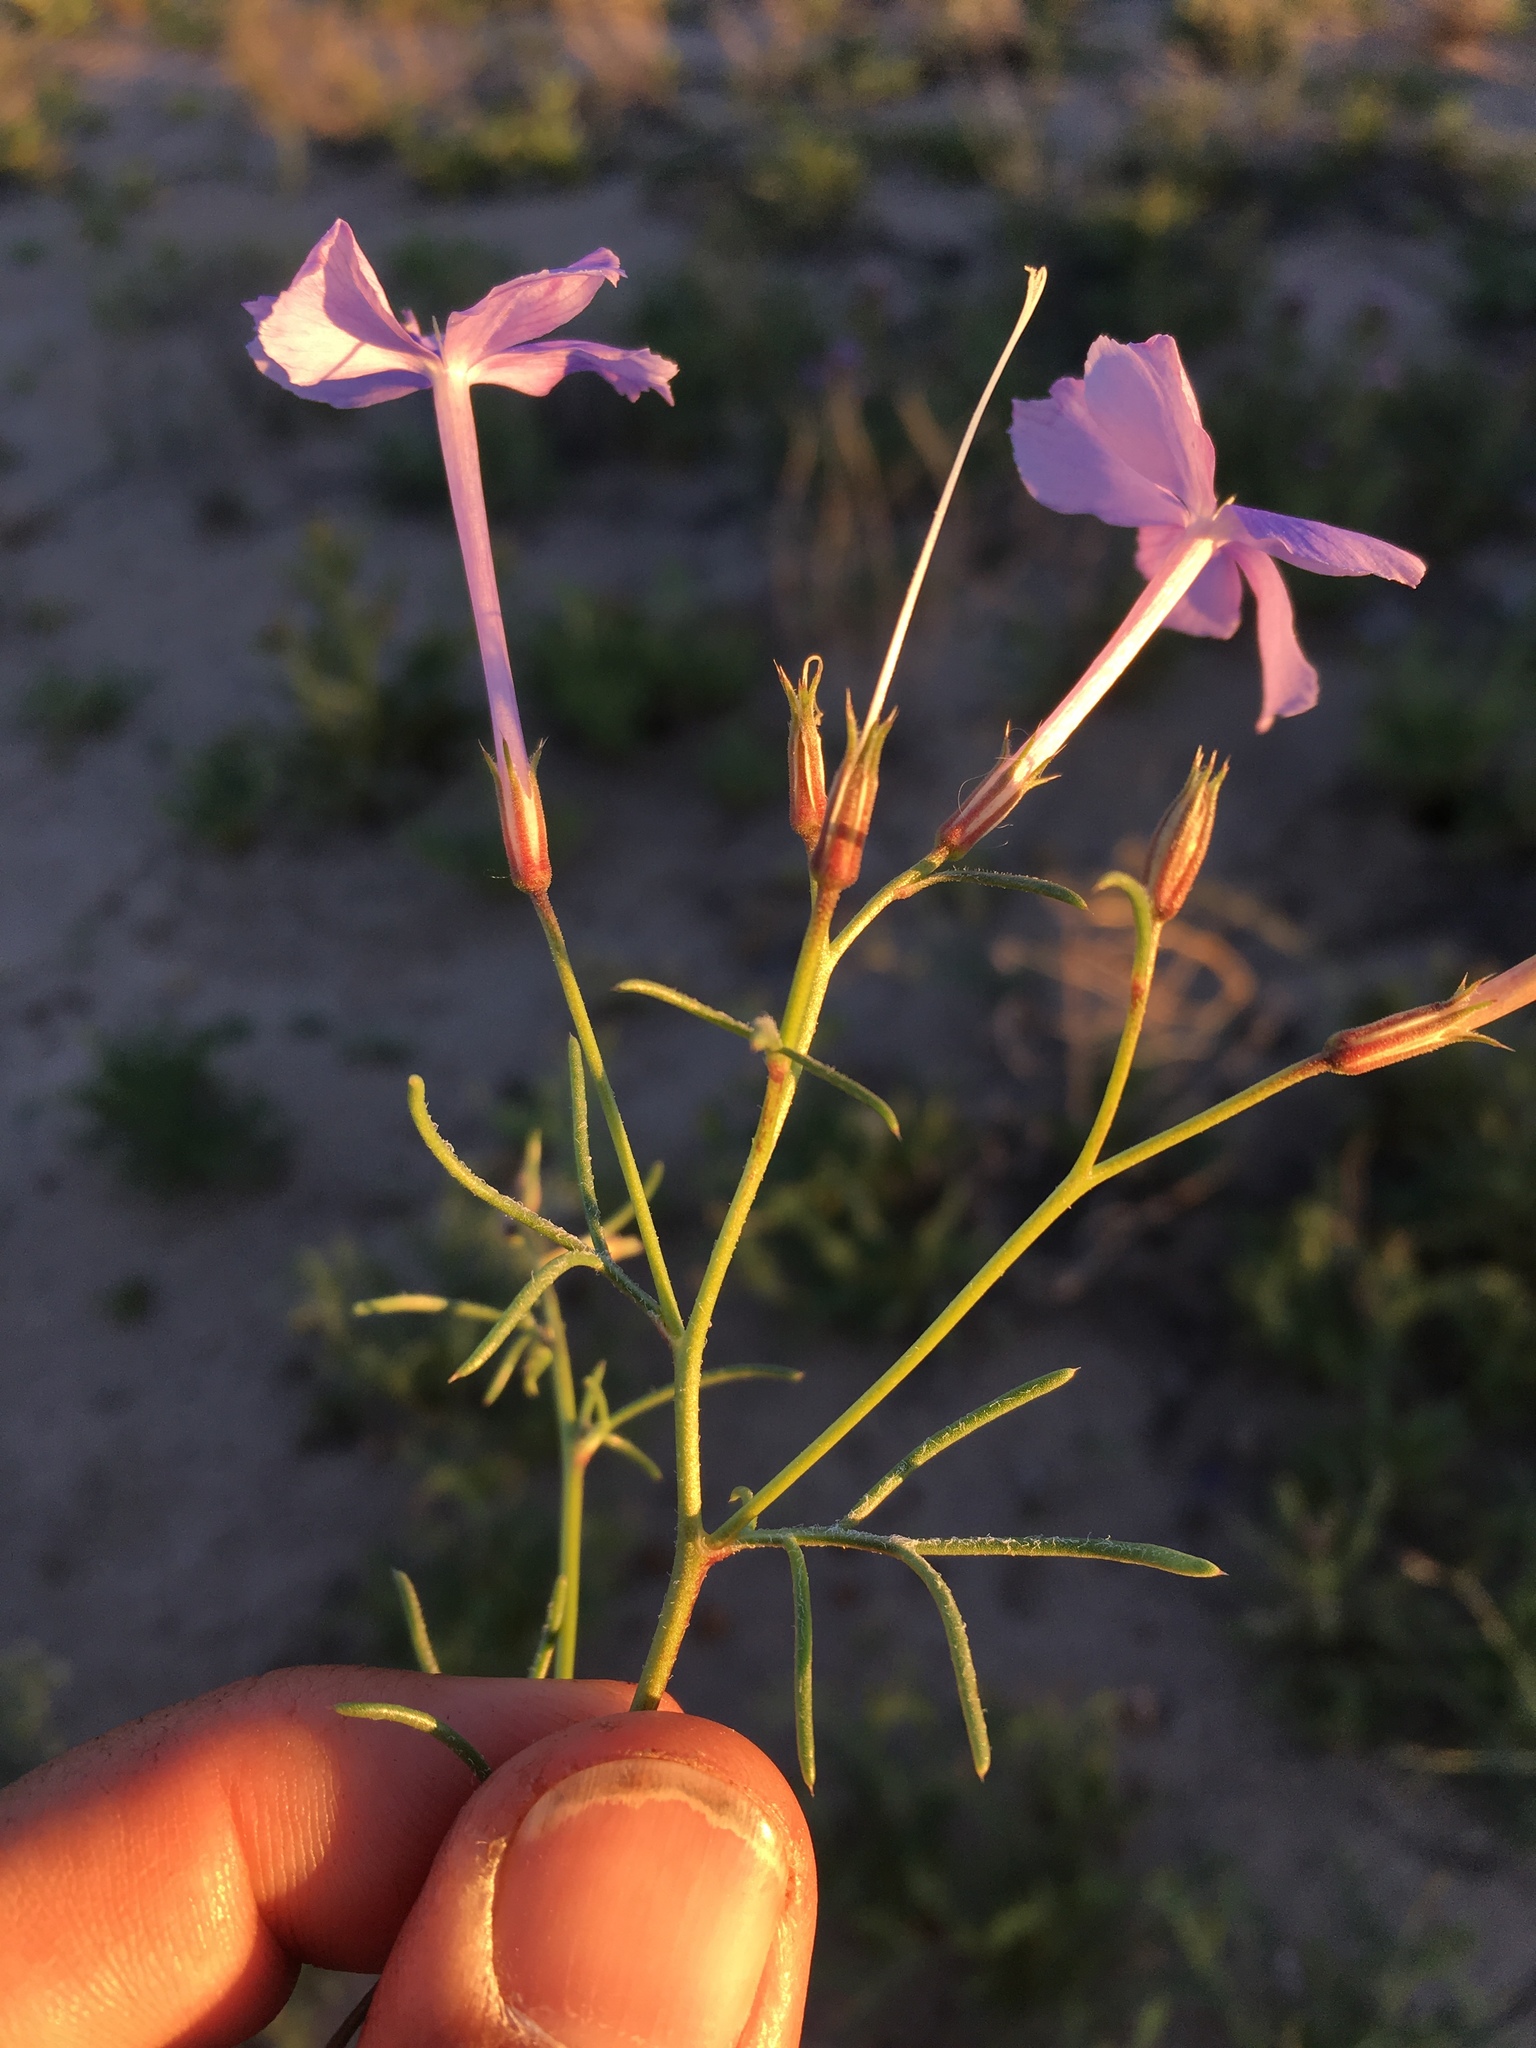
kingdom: Plantae
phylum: Tracheophyta
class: Magnoliopsida
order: Ericales
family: Polemoniaceae
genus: Ipomopsis
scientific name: Ipomopsis longiflora
